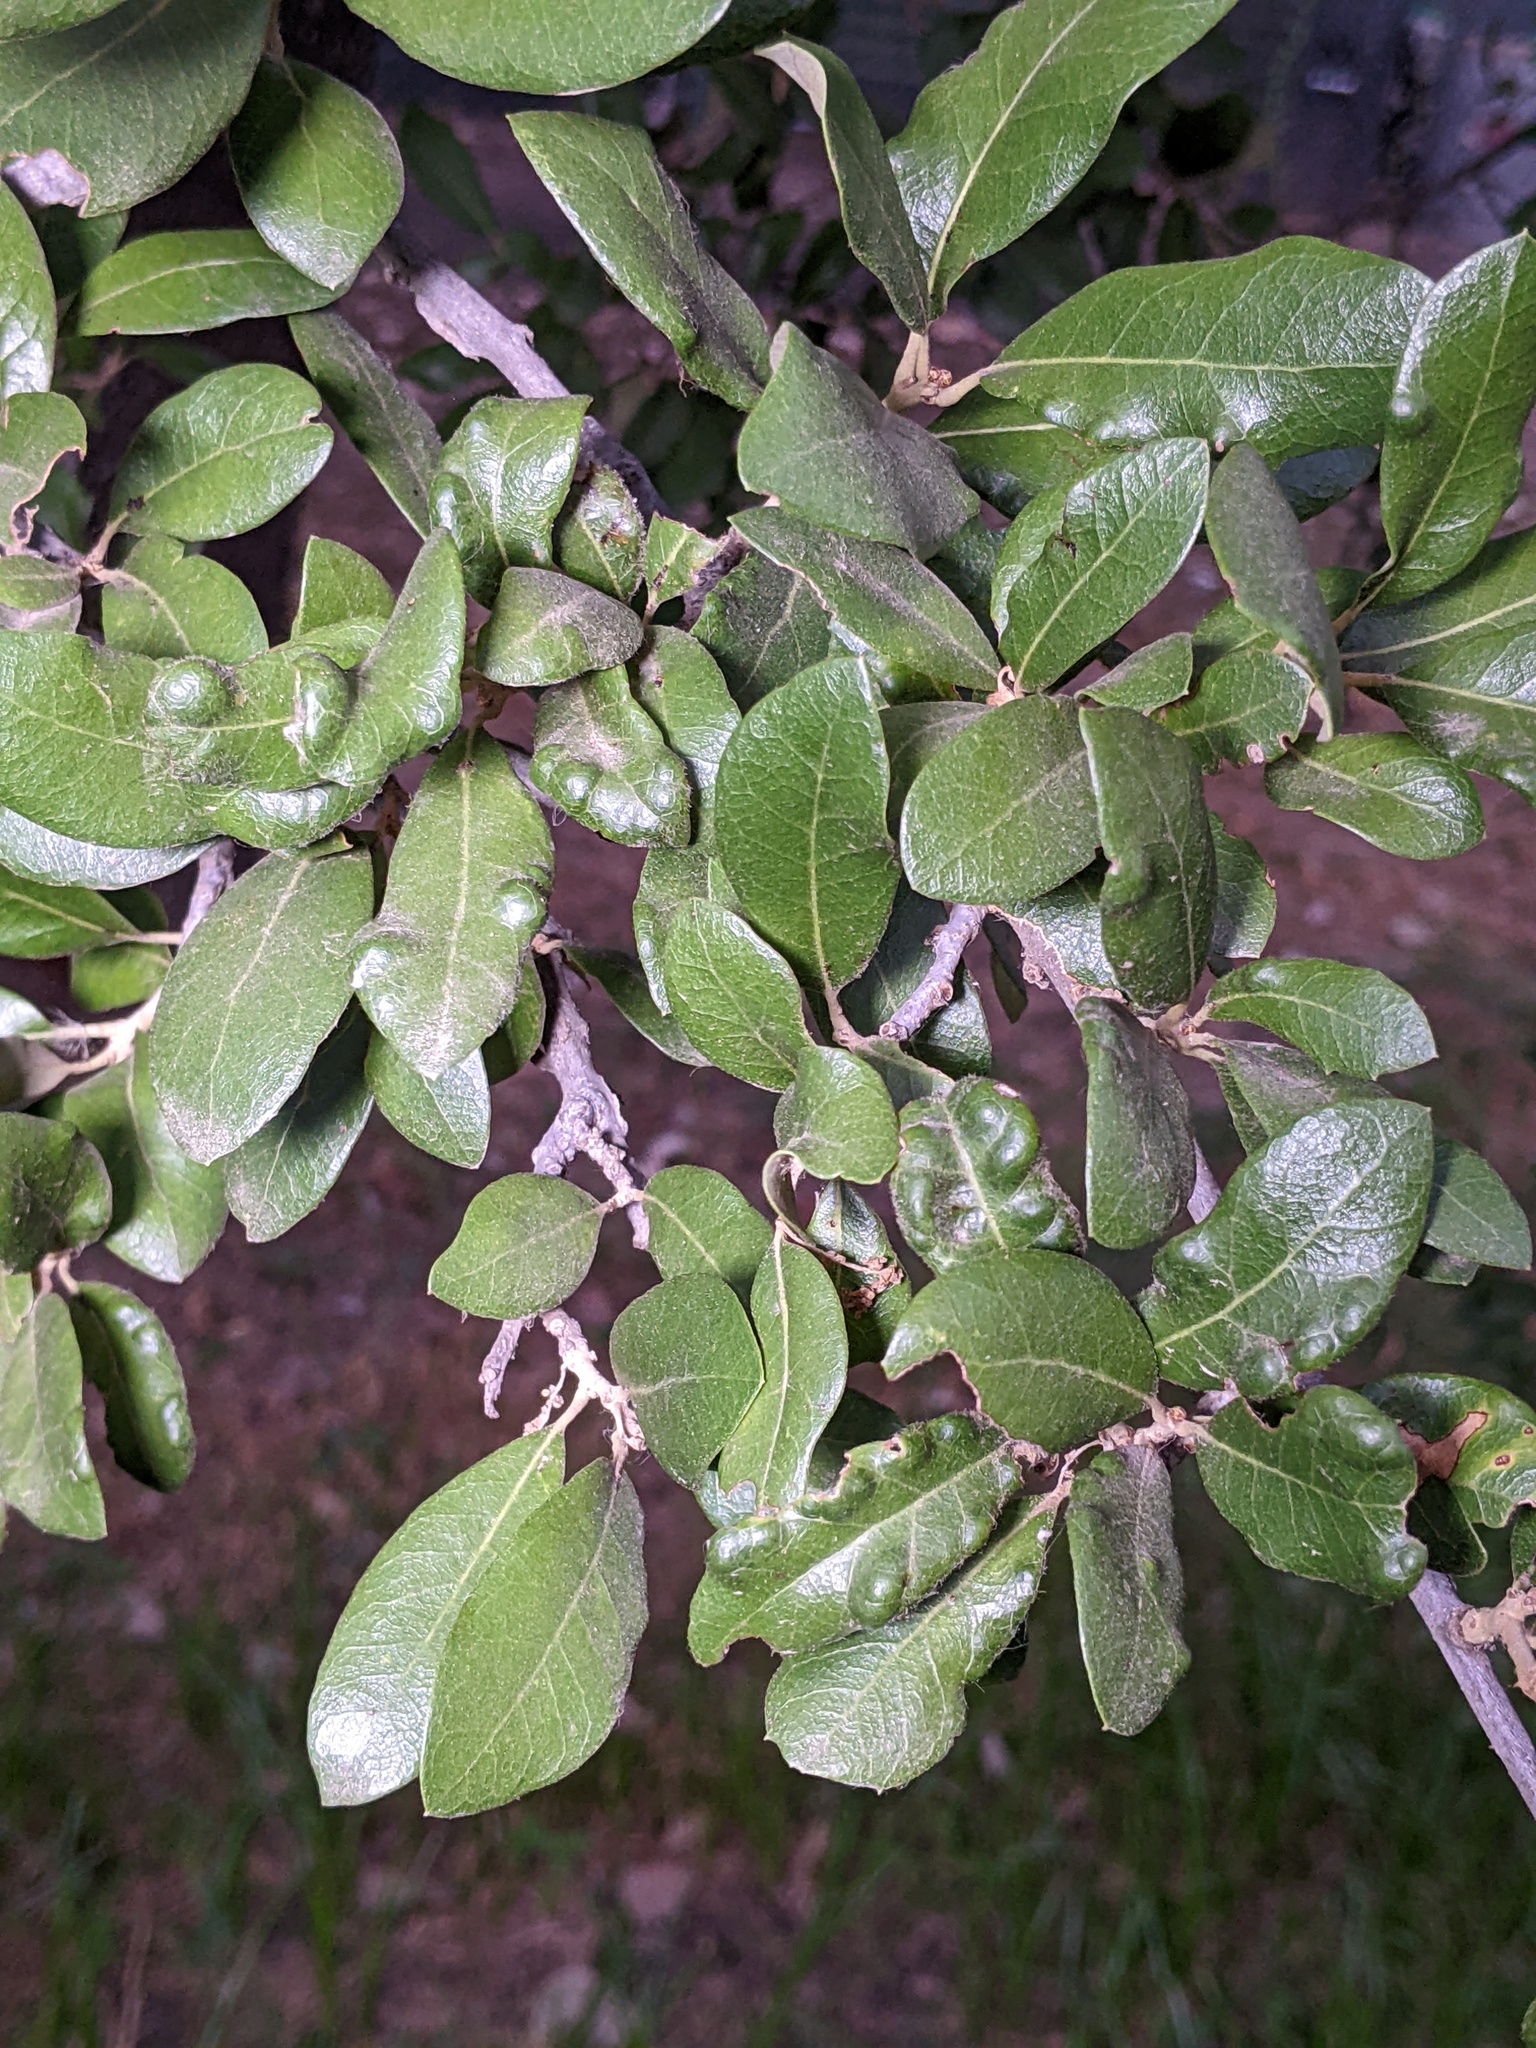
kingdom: Animalia
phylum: Arthropoda
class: Arachnida
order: Trombidiformes
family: Eriophyidae
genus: Aceria
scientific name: Aceria quercina
